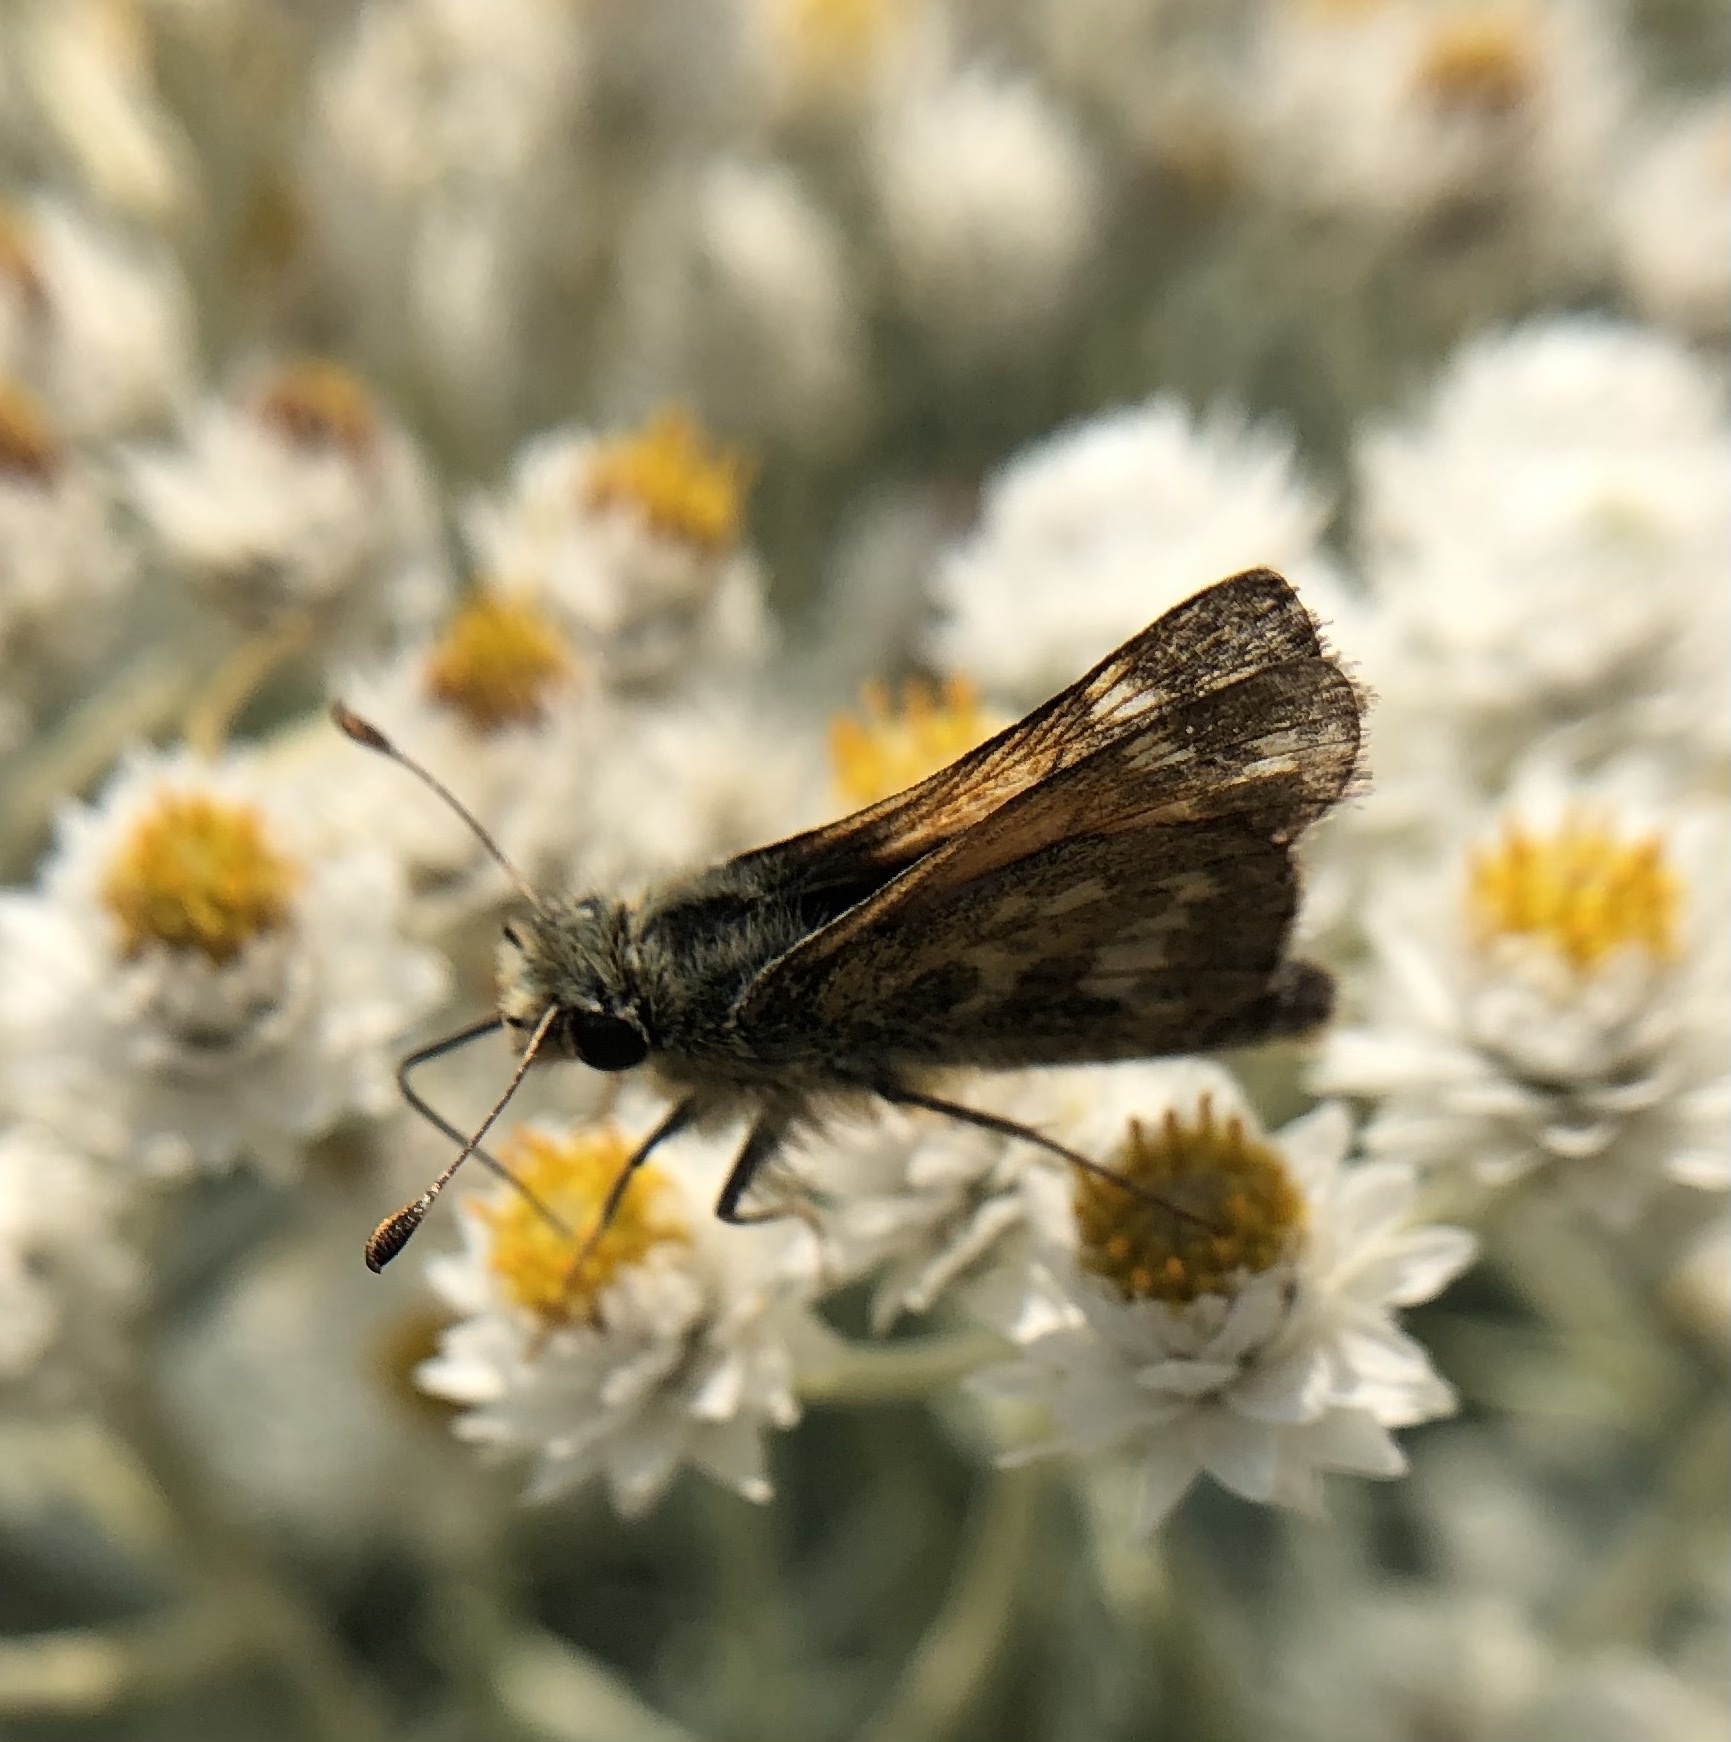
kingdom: Animalia
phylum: Arthropoda
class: Insecta
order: Lepidoptera
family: Hesperiidae
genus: Hesperia
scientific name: Hesperia comma
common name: Common branded skipper
